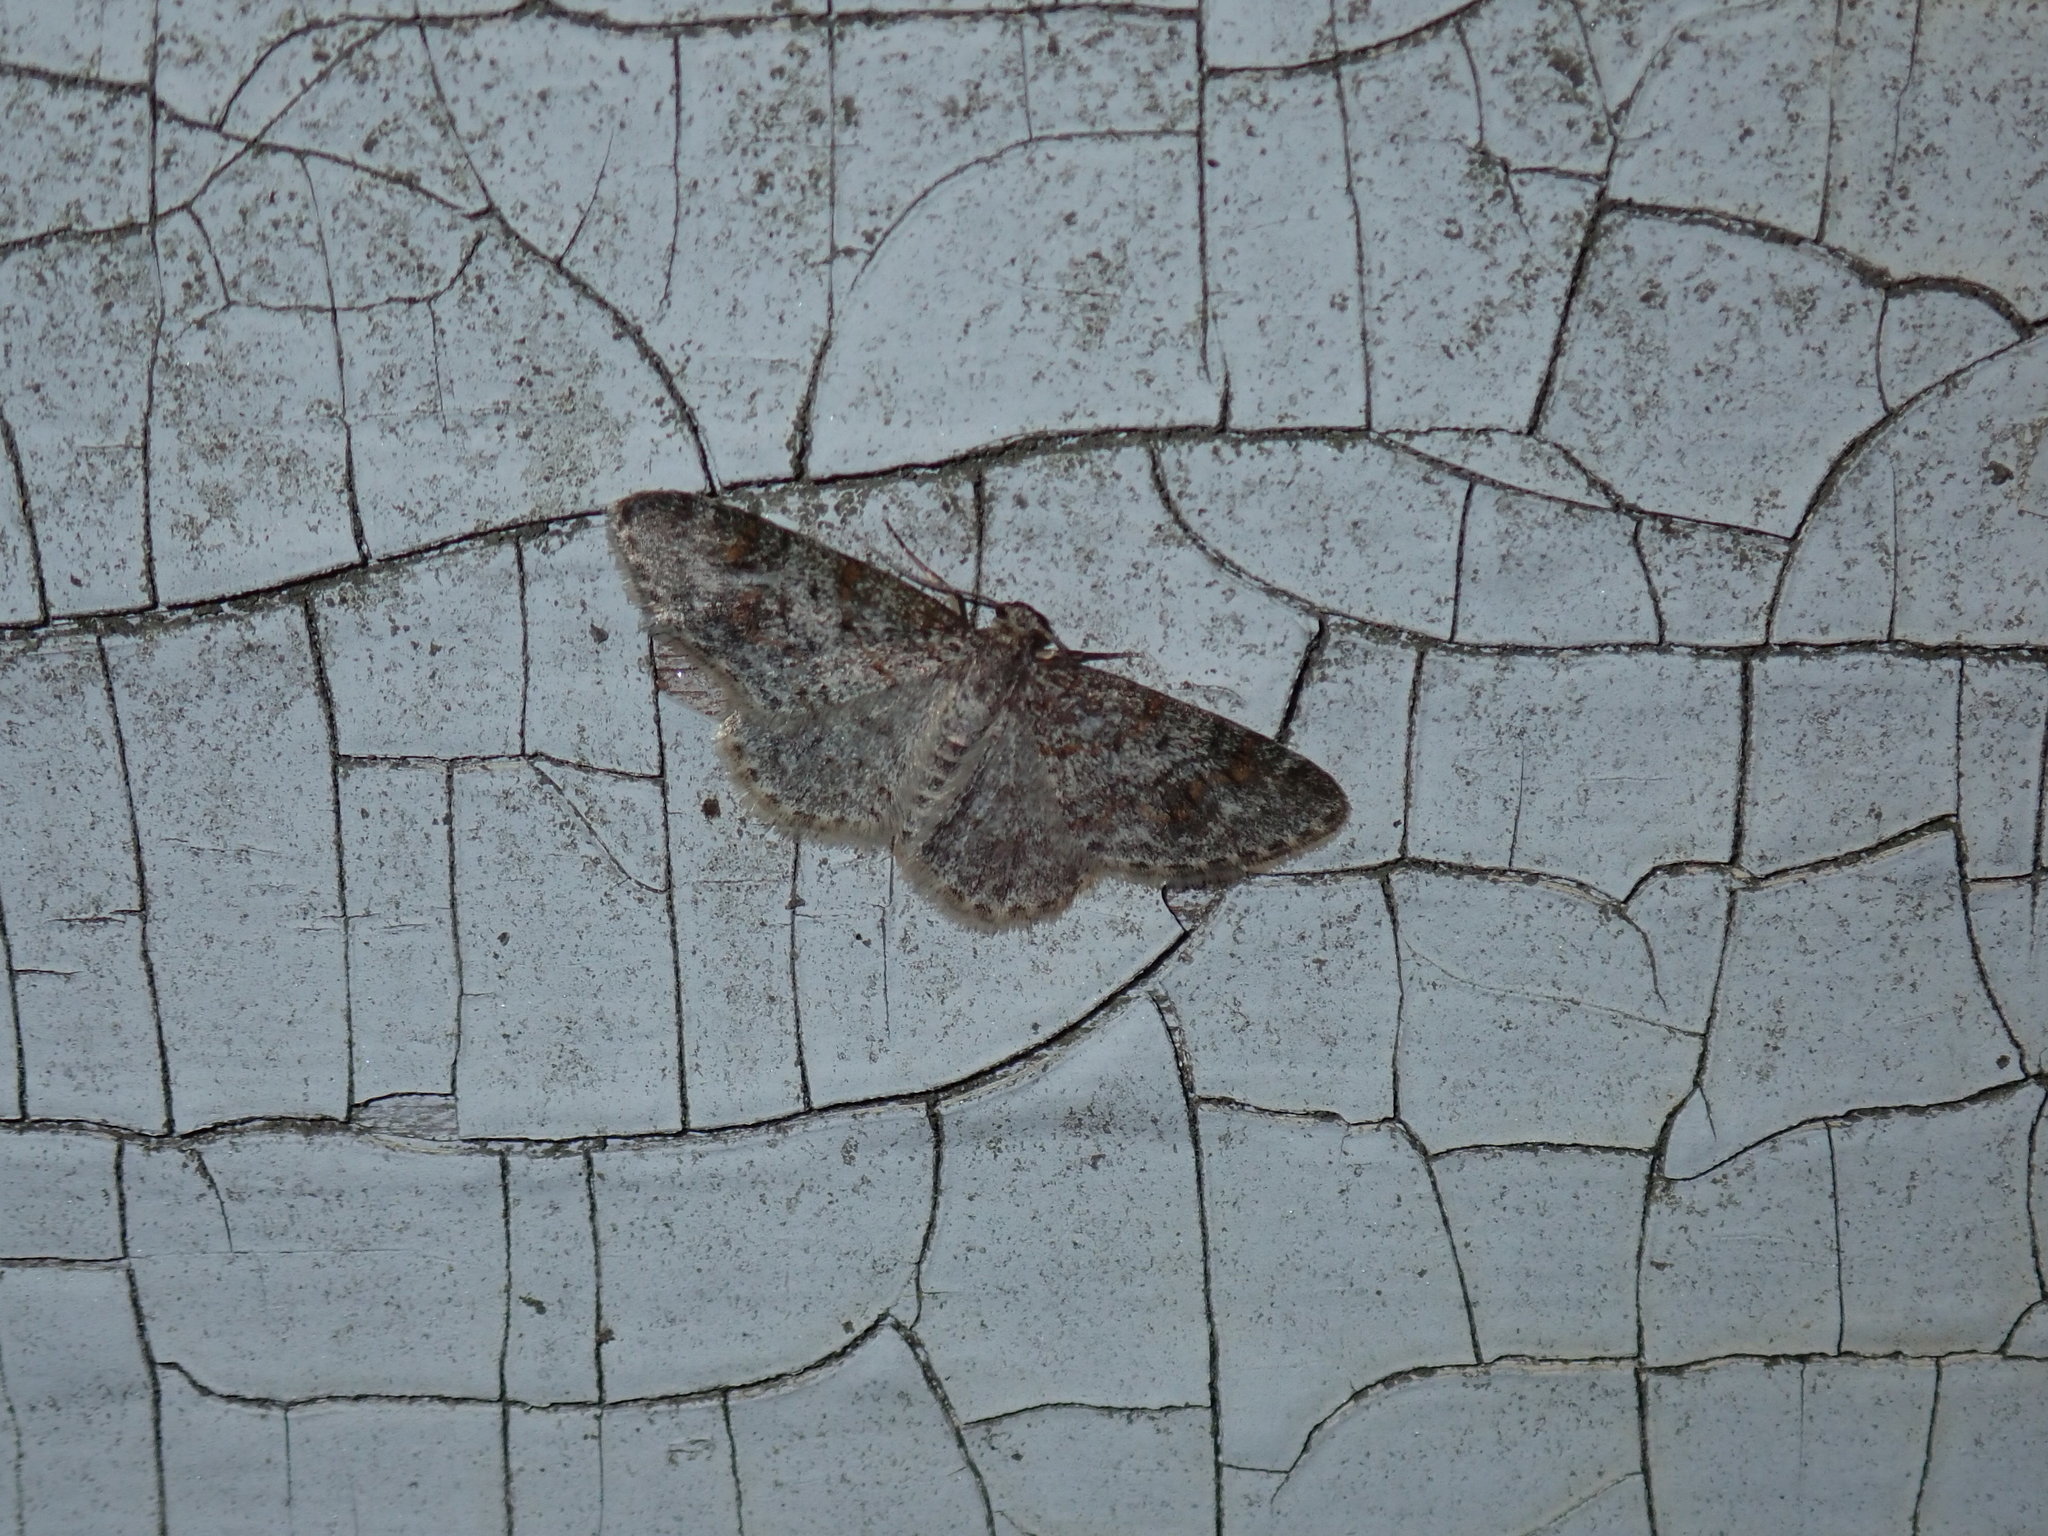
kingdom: Animalia
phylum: Arthropoda
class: Insecta
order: Lepidoptera
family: Geometridae
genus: Hydrelia
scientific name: Hydrelia inornata
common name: Unadorned carpet moth
